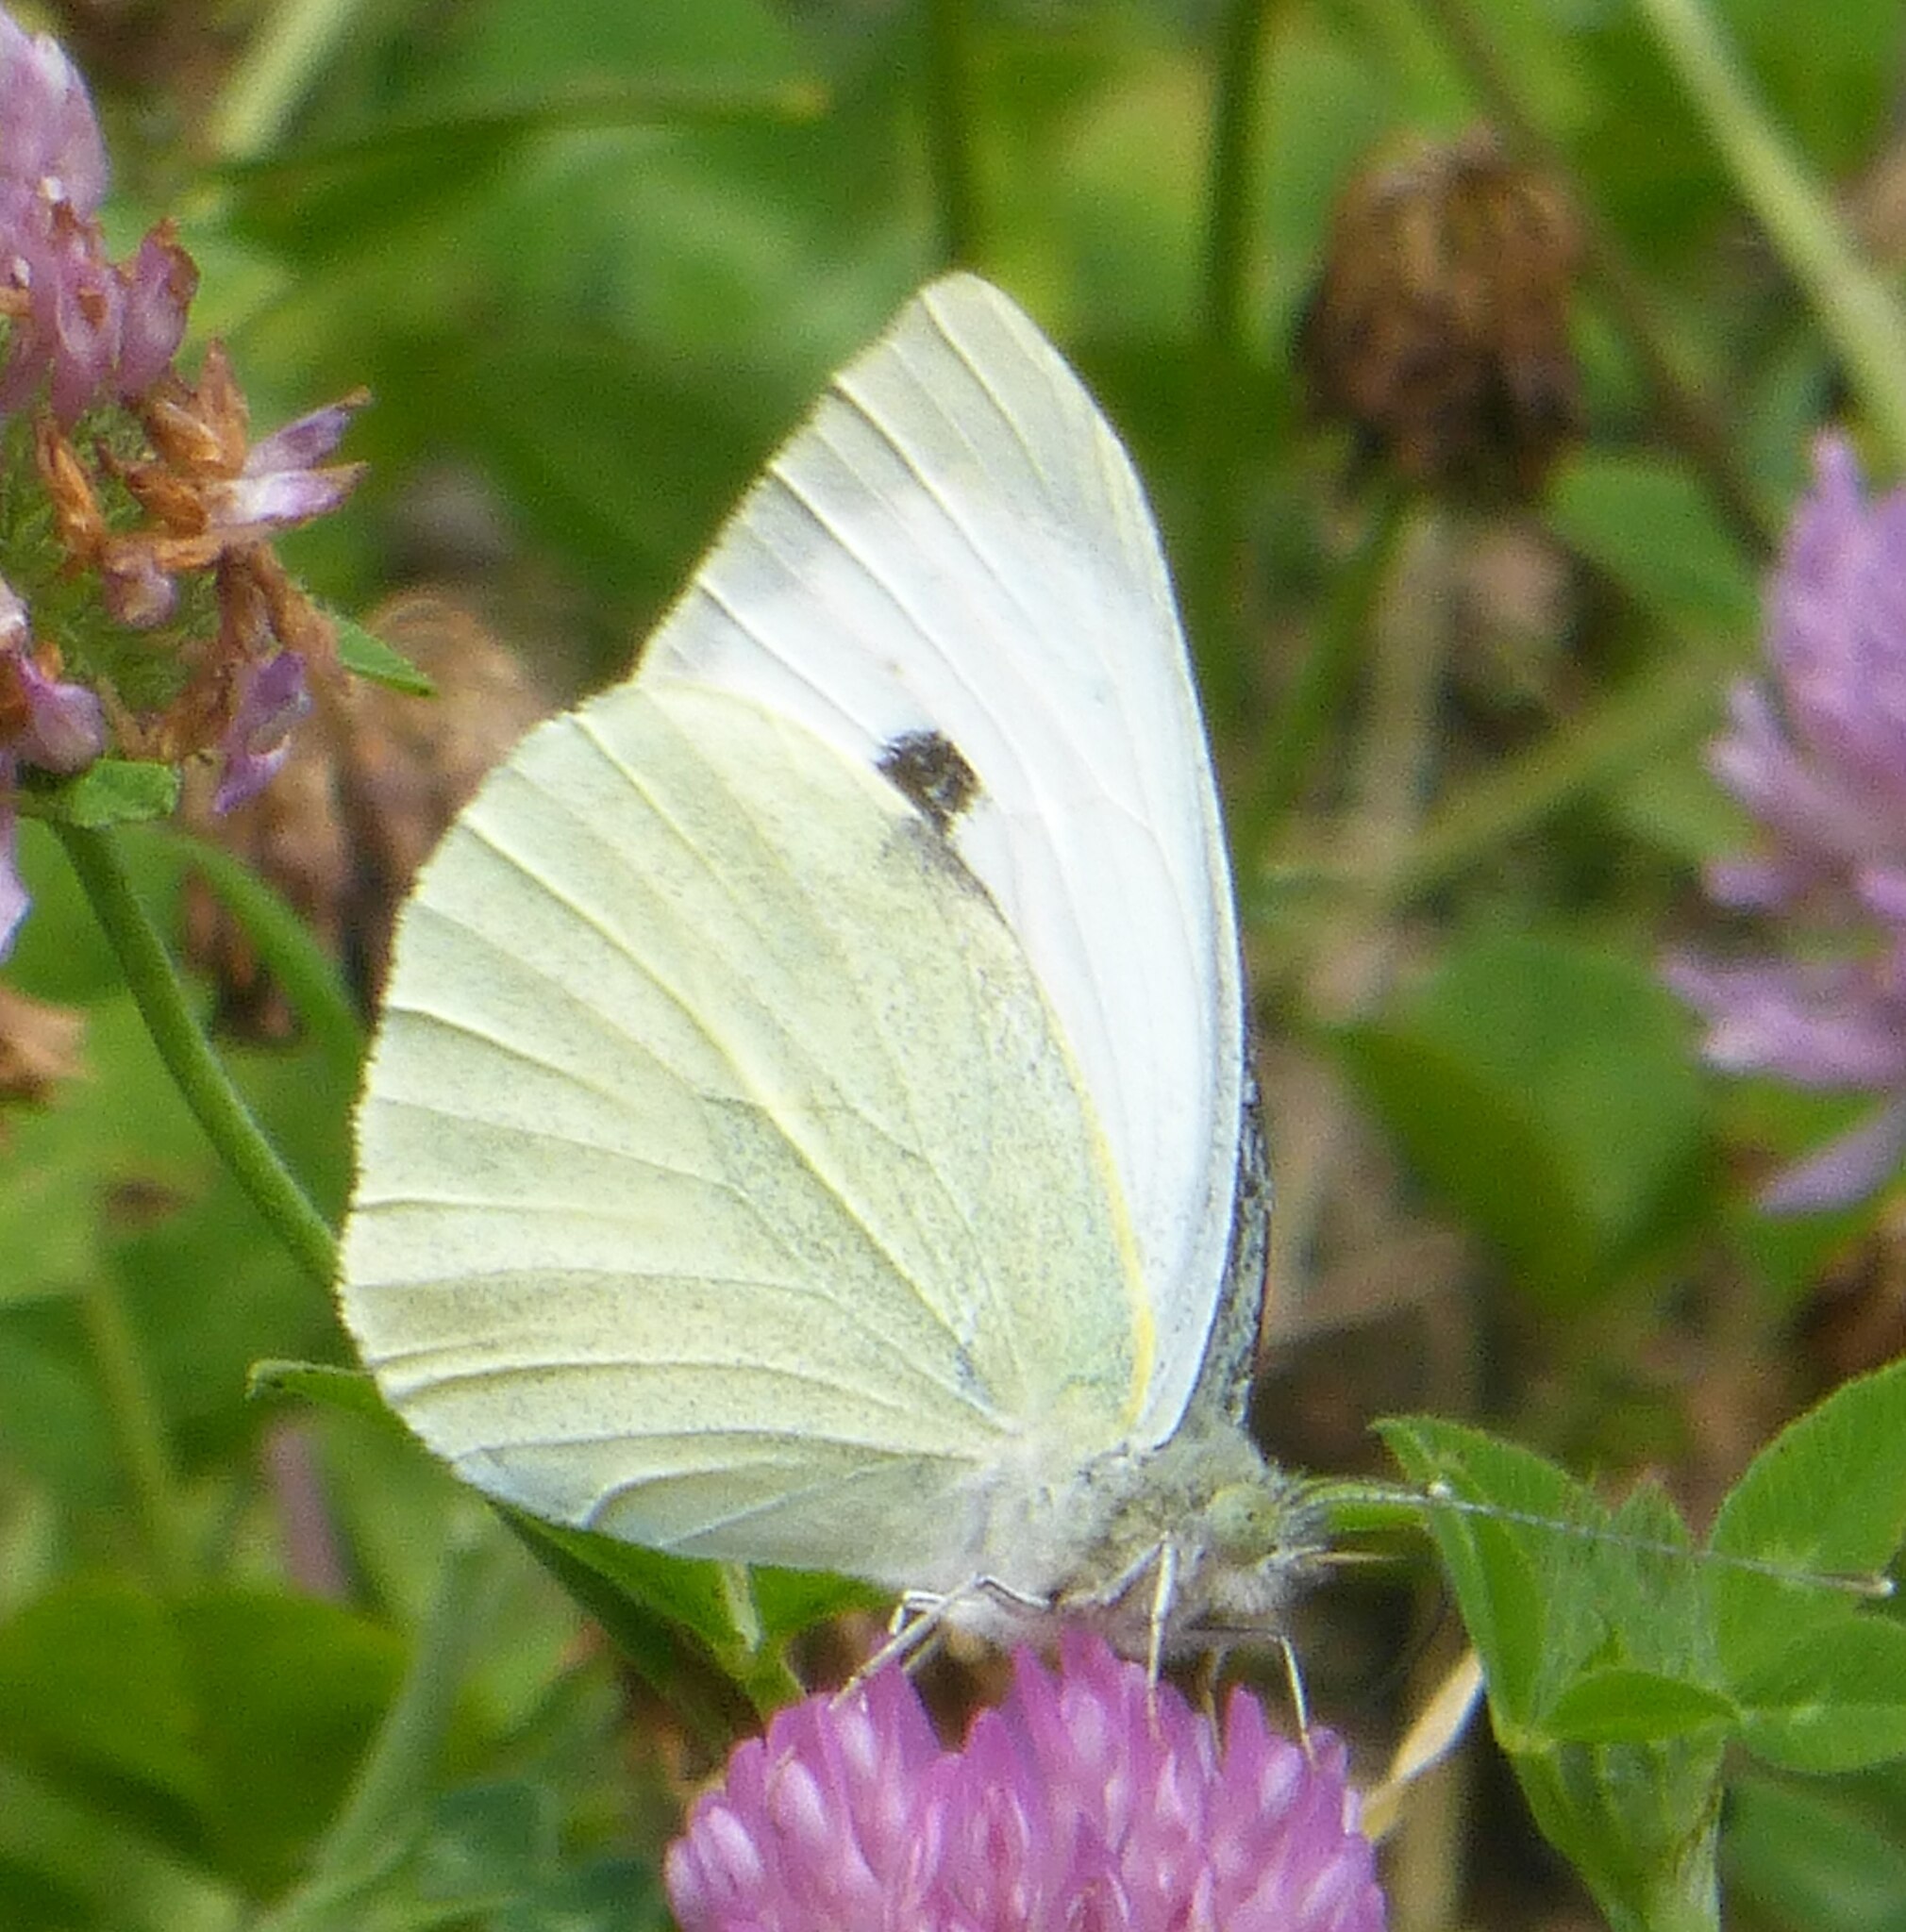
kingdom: Animalia
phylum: Arthropoda
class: Insecta
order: Lepidoptera
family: Pieridae
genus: Pieris
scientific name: Pieris brassicae
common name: Large white
